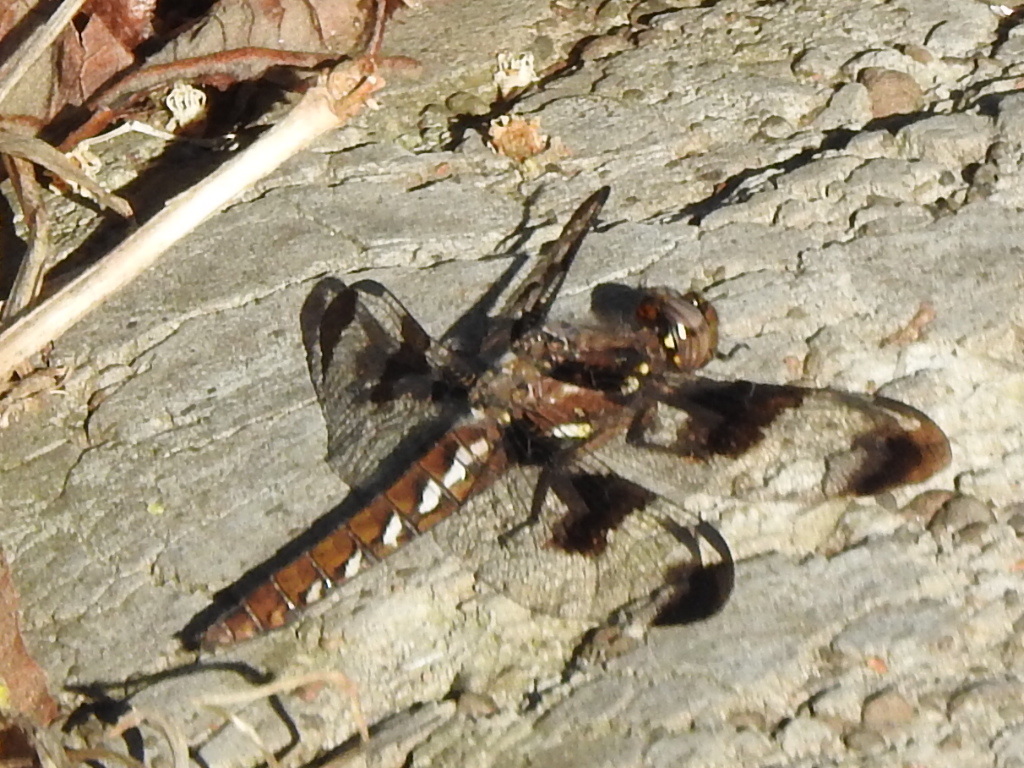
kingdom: Animalia
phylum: Arthropoda
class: Insecta
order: Odonata
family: Libellulidae
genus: Plathemis
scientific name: Plathemis lydia
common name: Common whitetail
